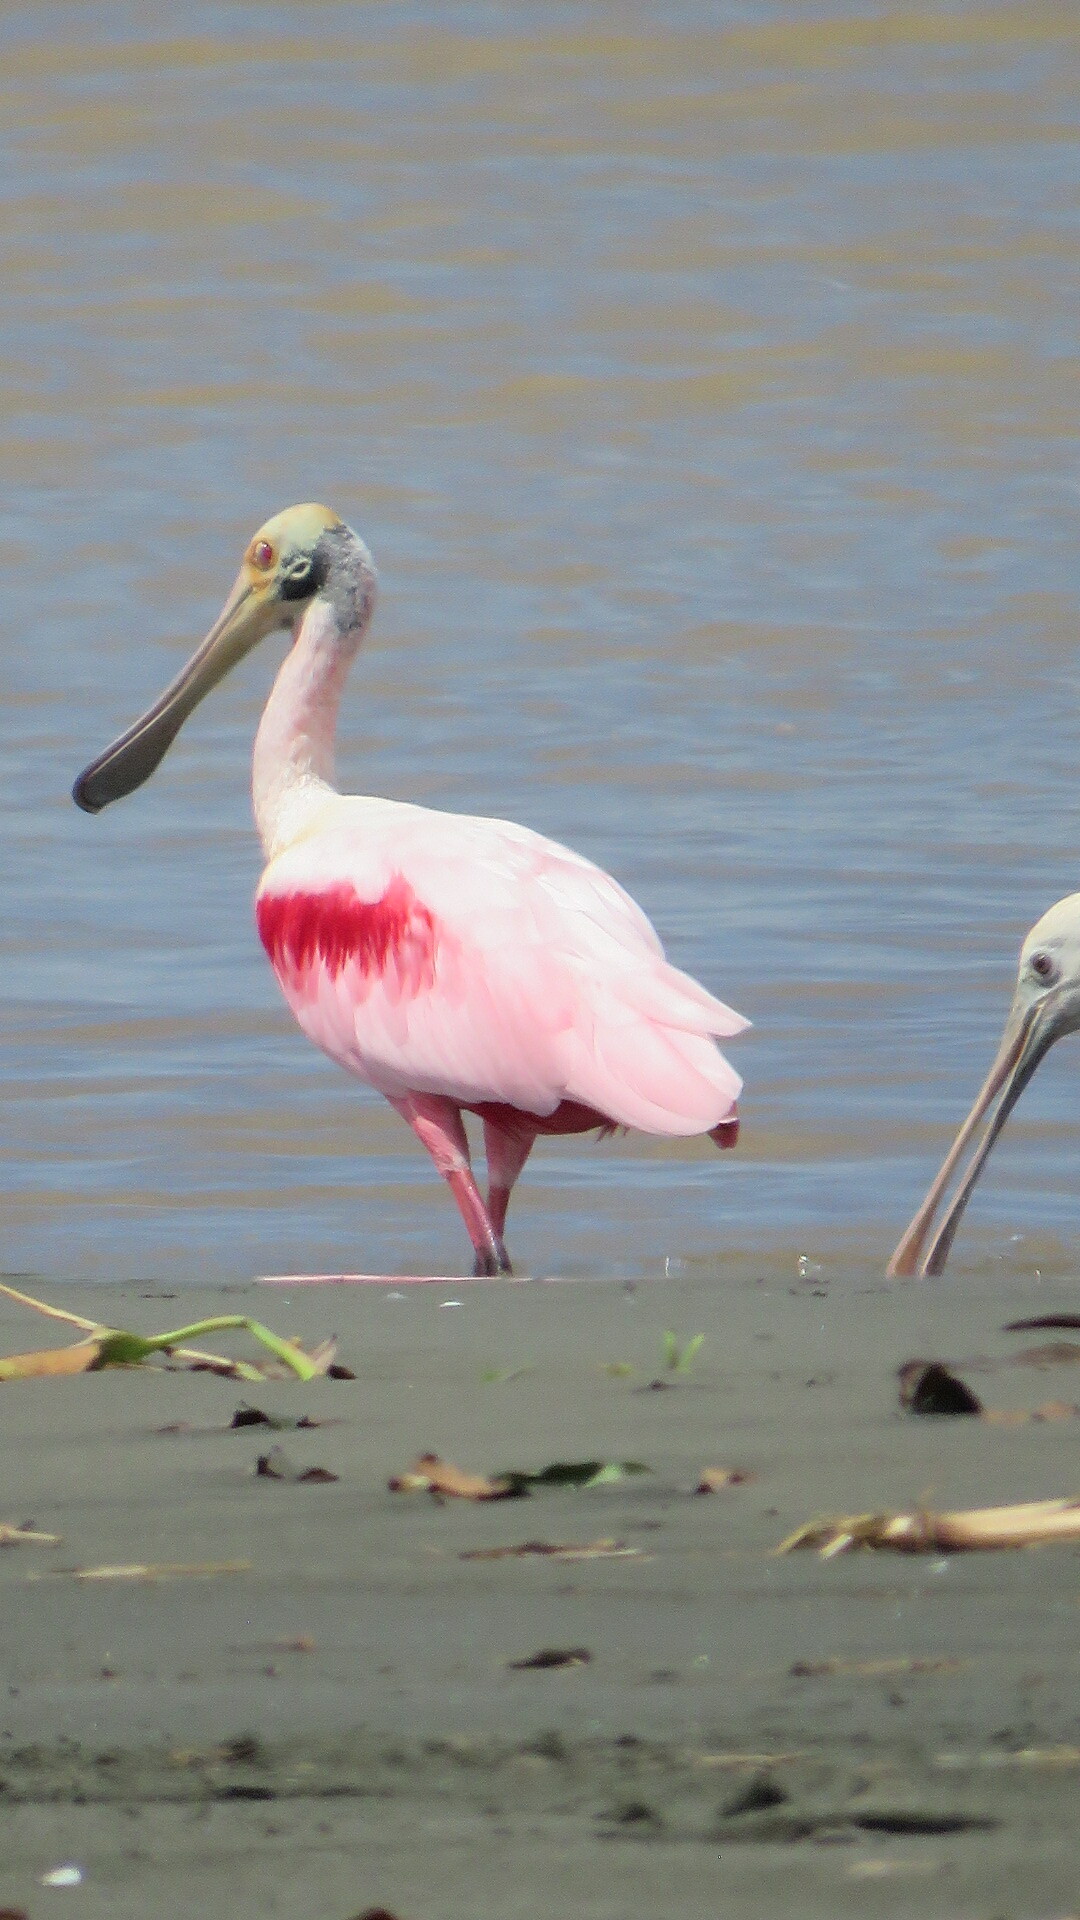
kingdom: Animalia
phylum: Chordata
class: Aves
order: Pelecaniformes
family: Threskiornithidae
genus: Platalea
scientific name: Platalea ajaja
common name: Roseate spoonbill
